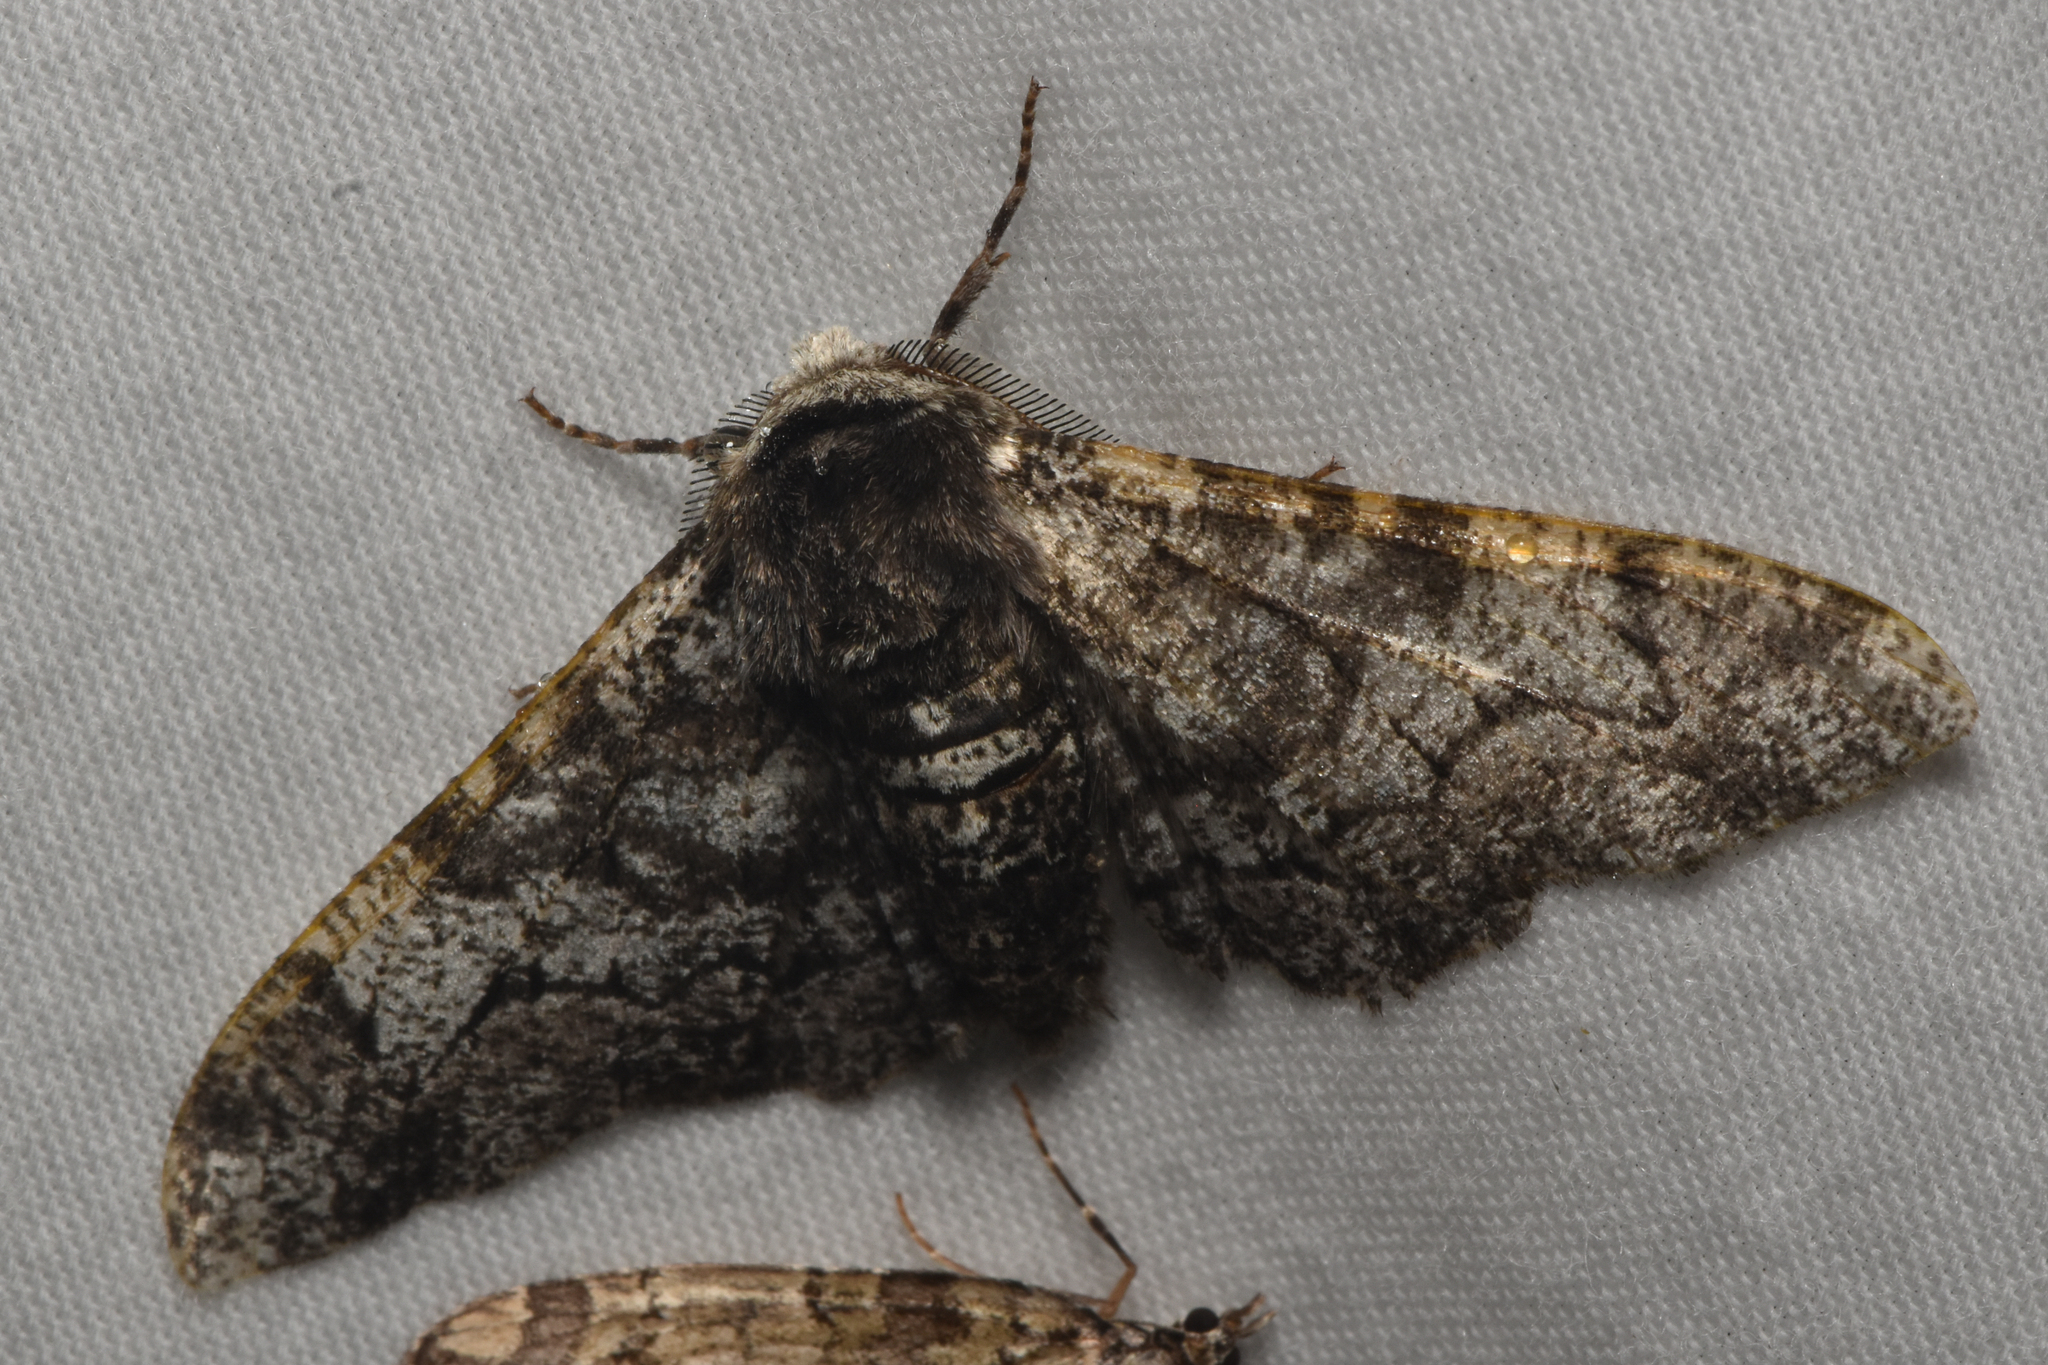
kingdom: Animalia
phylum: Arthropoda
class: Insecta
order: Lepidoptera
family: Geometridae
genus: Biston
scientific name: Biston betularia
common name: Peppered moth
